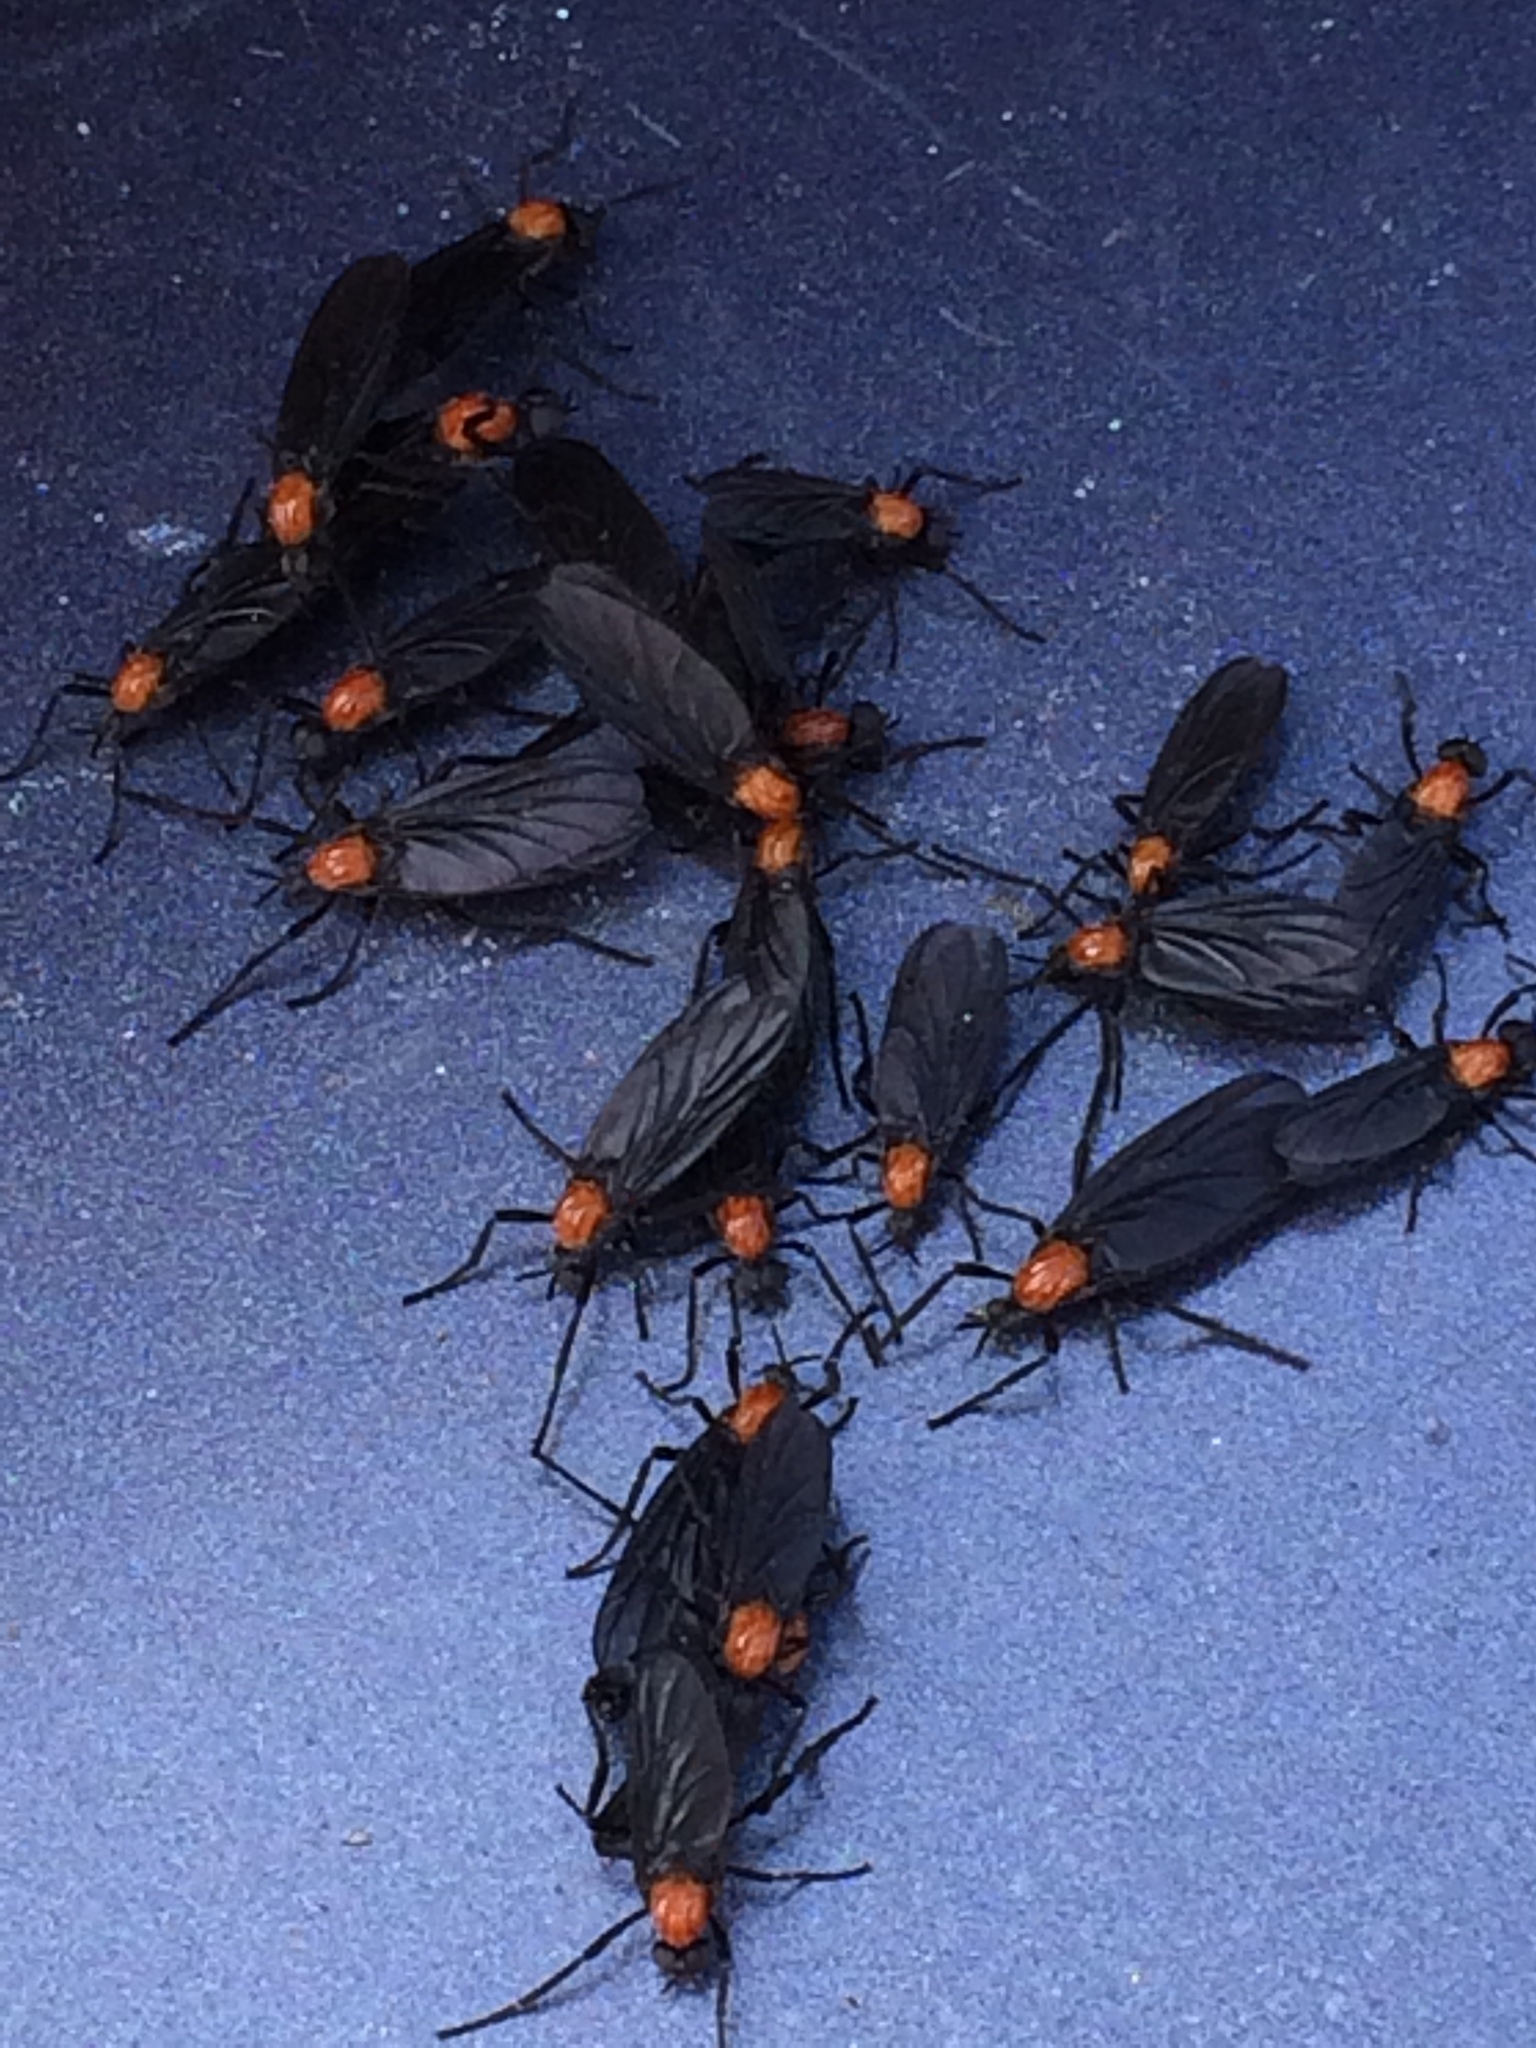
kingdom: Animalia
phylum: Arthropoda
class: Insecta
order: Diptera
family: Bibionidae
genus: Plecia
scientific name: Plecia nearctica
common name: March fly
